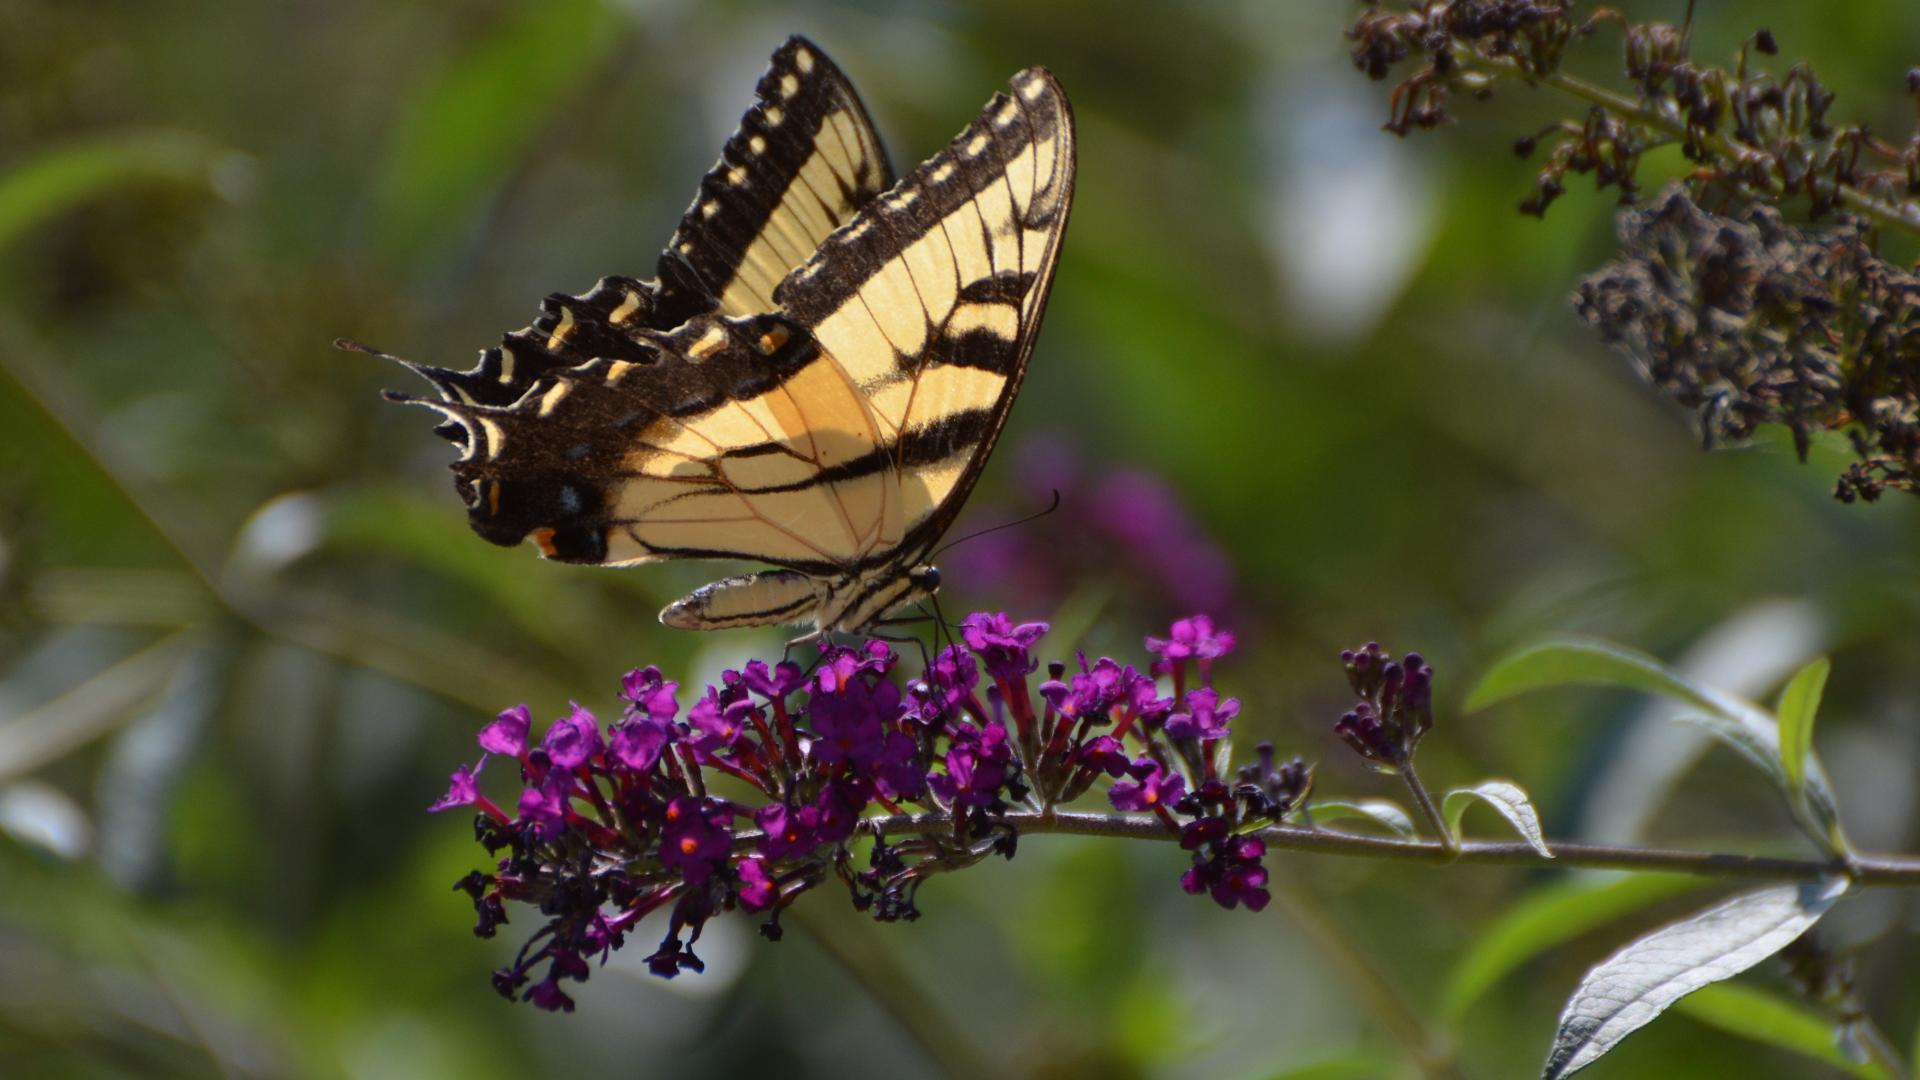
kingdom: Animalia
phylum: Arthropoda
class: Insecta
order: Lepidoptera
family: Papilionidae
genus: Papilio
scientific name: Papilio glaucus
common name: Tiger swallowtail
